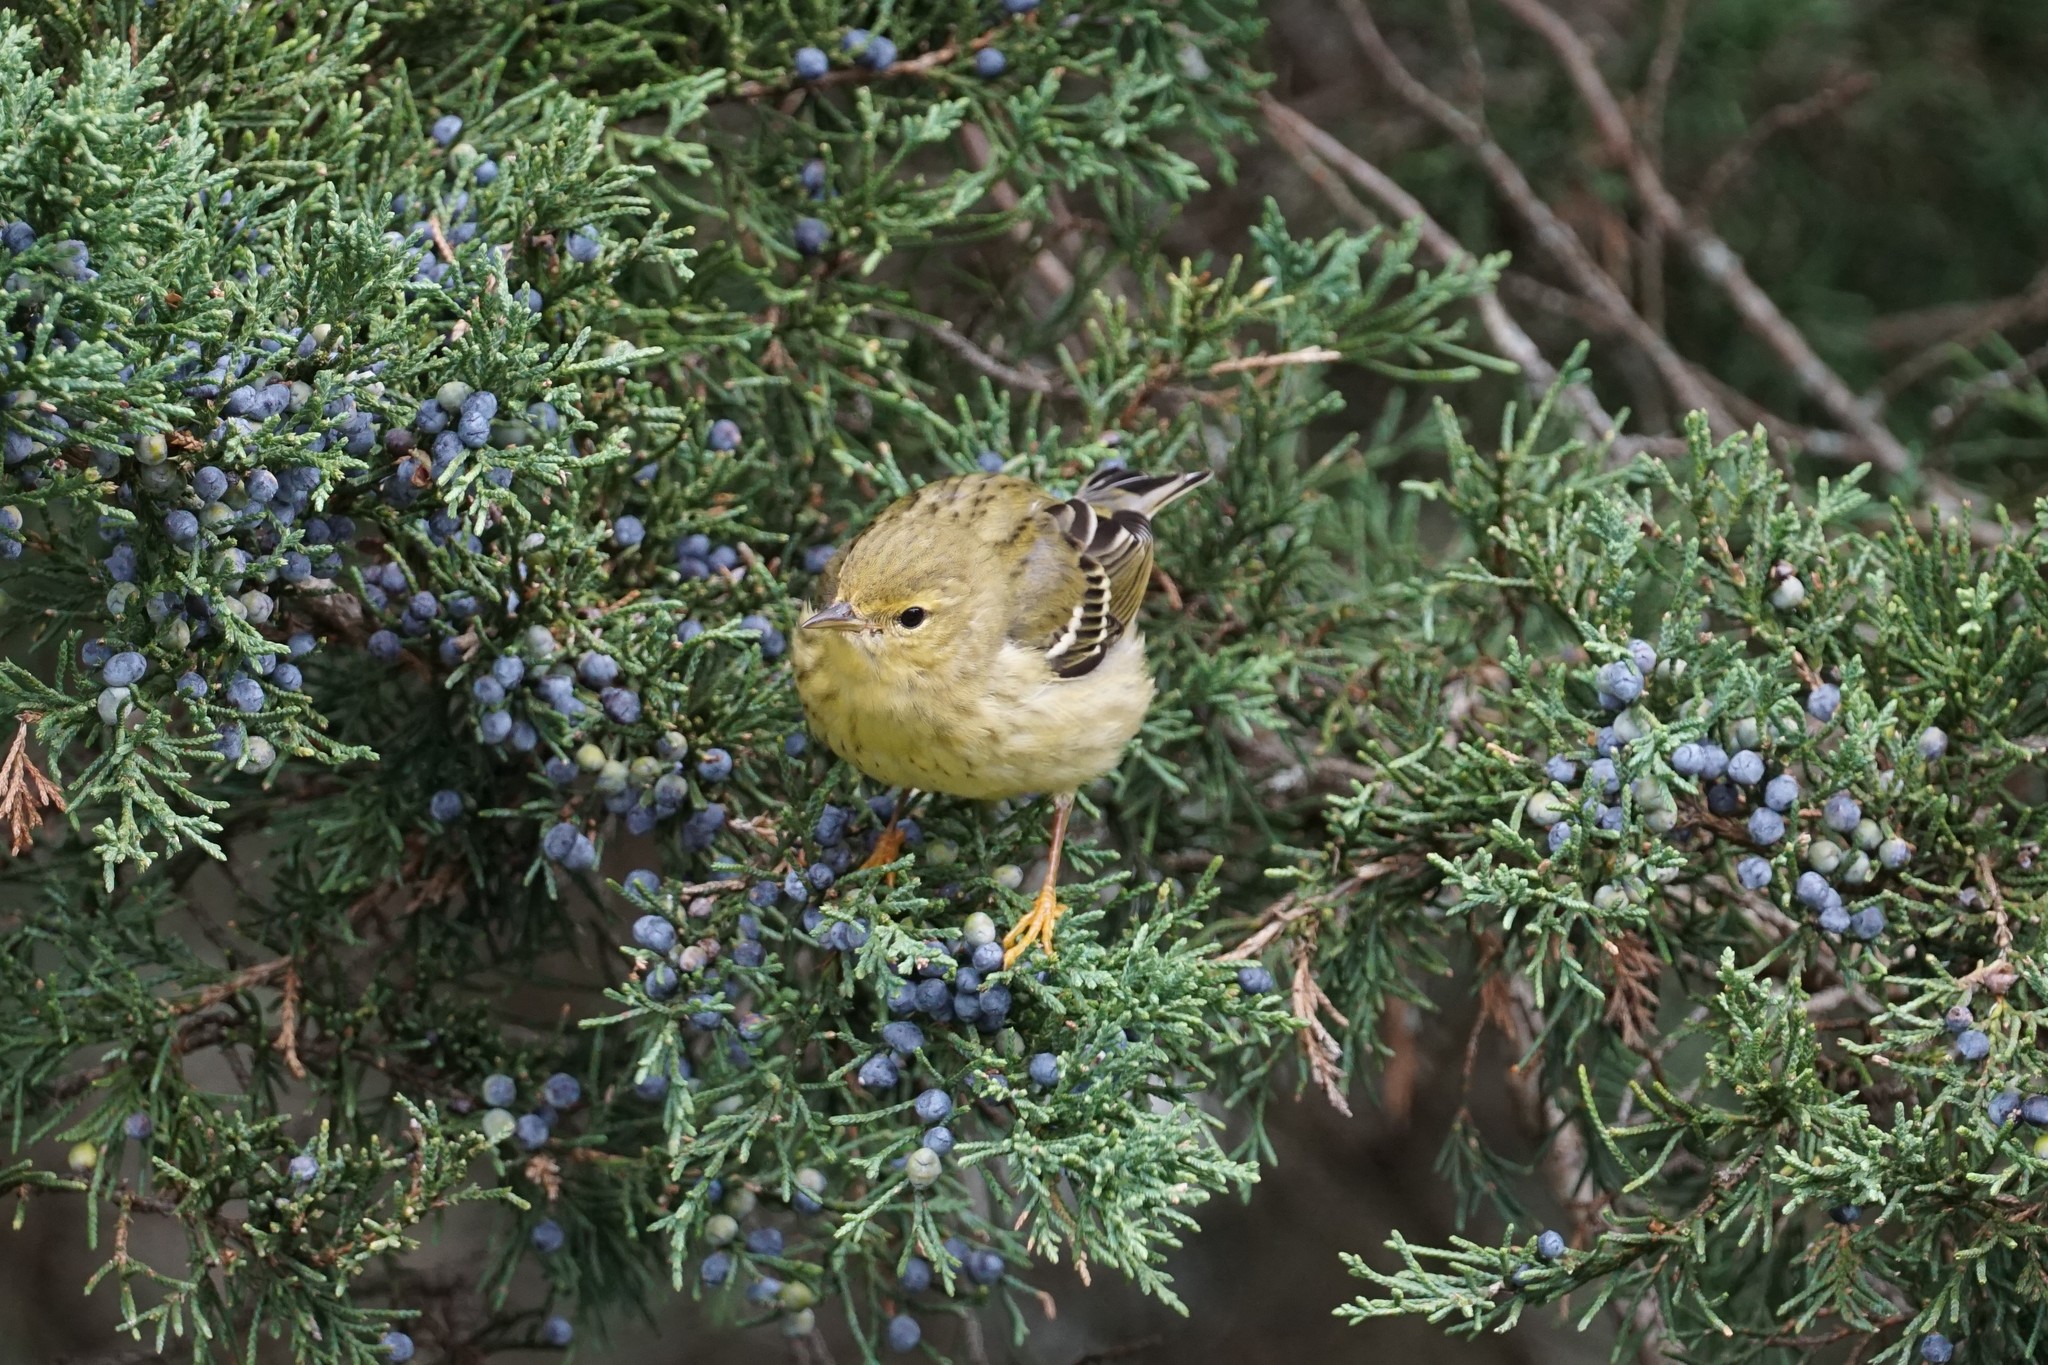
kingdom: Animalia
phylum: Chordata
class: Aves
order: Passeriformes
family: Parulidae
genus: Setophaga
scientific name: Setophaga striata
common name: Blackpoll warbler
